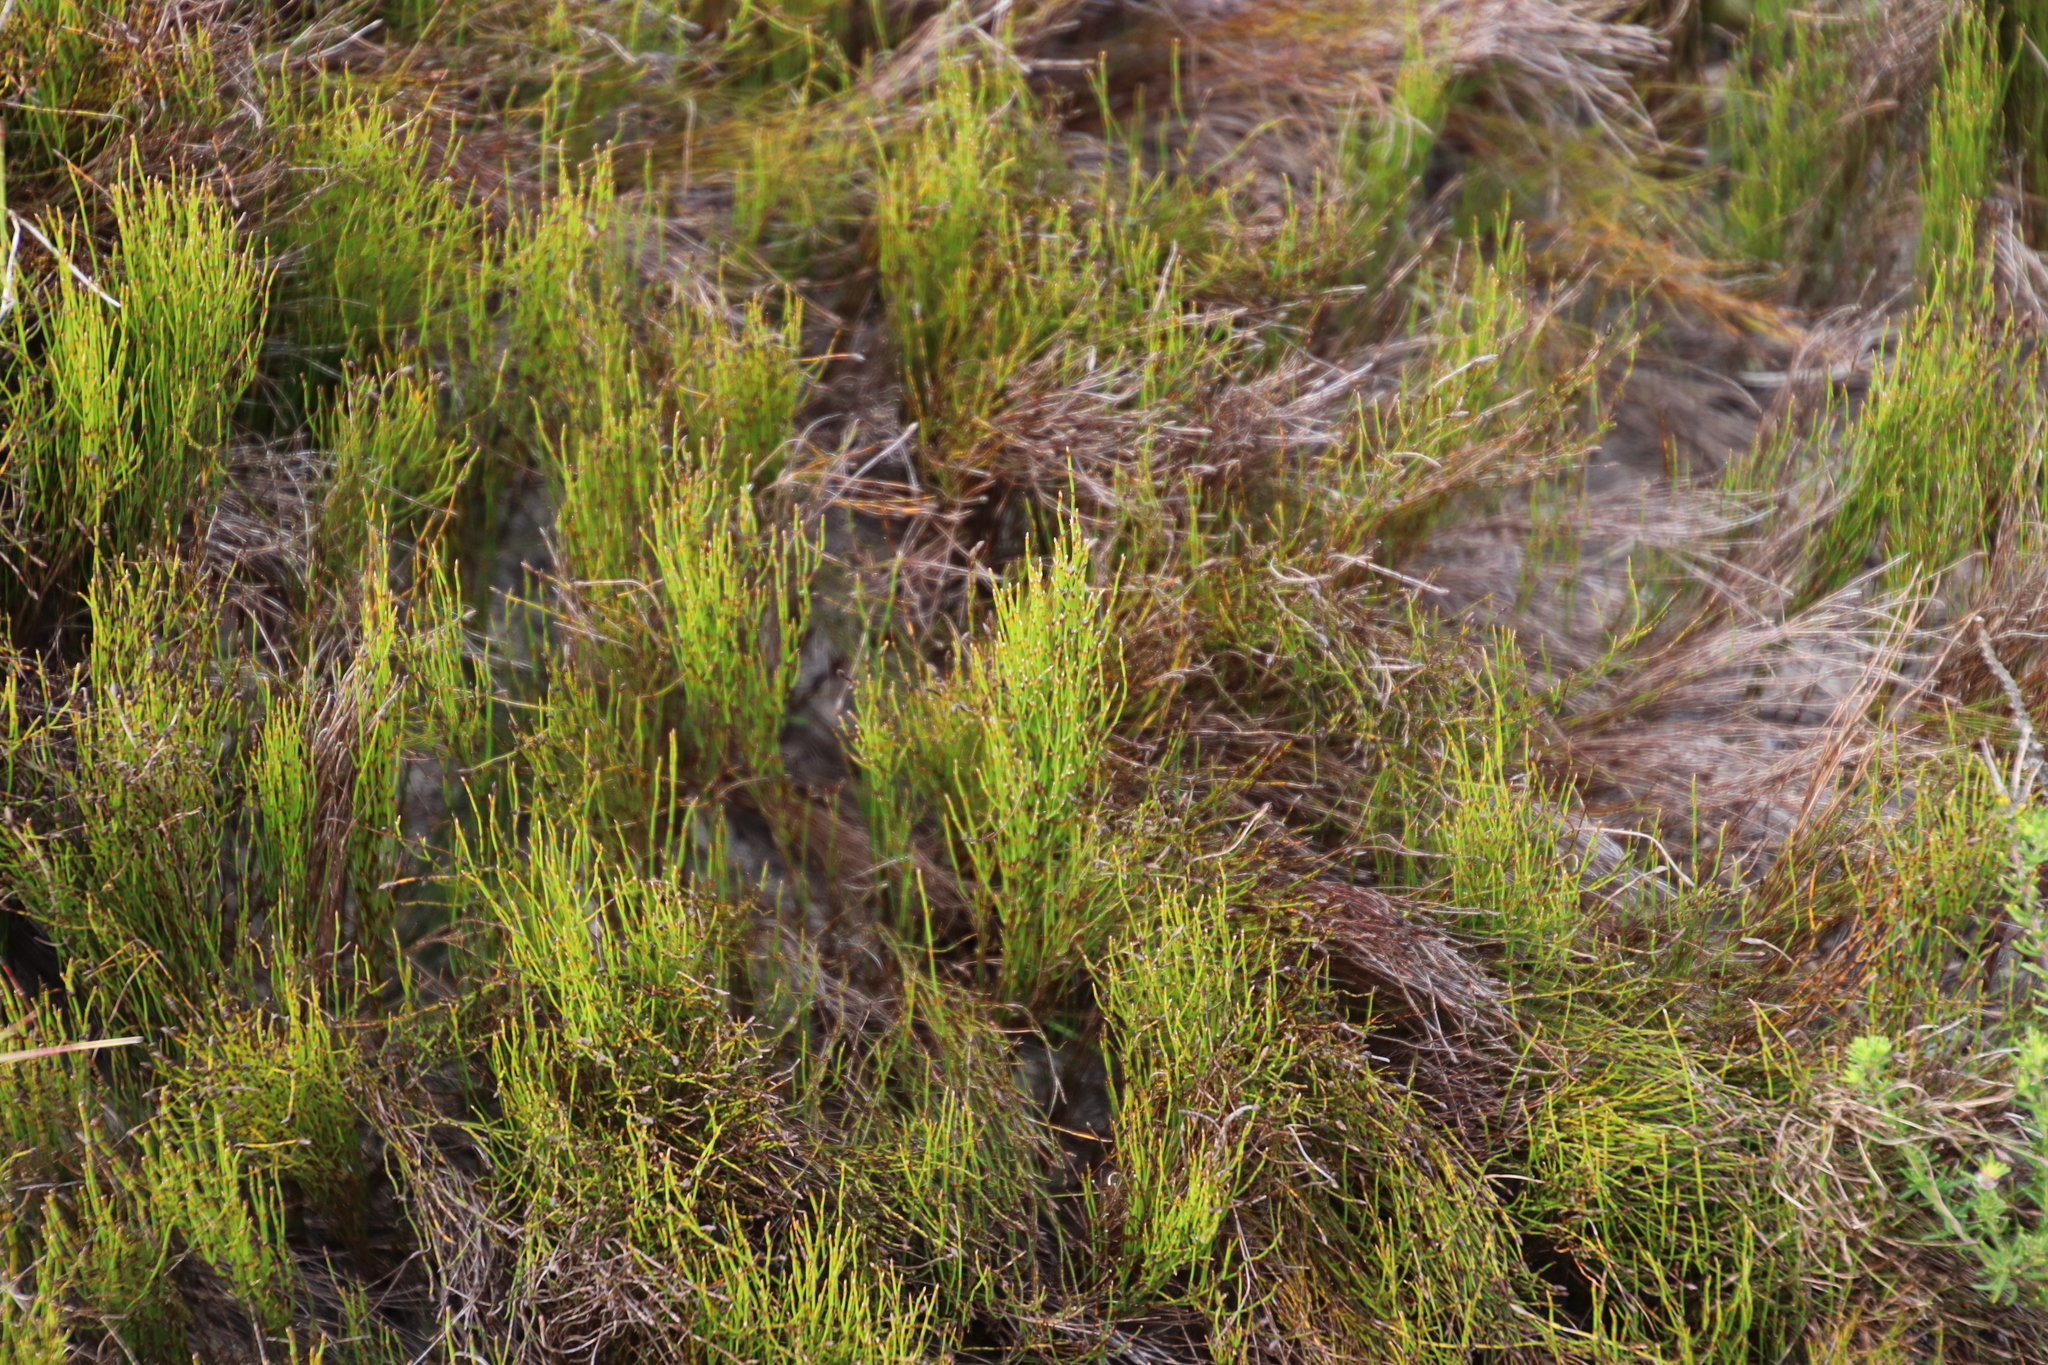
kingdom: Plantae
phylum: Tracheophyta
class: Liliopsida
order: Poales
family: Restionaceae
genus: Restio
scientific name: Restio eleocharis
